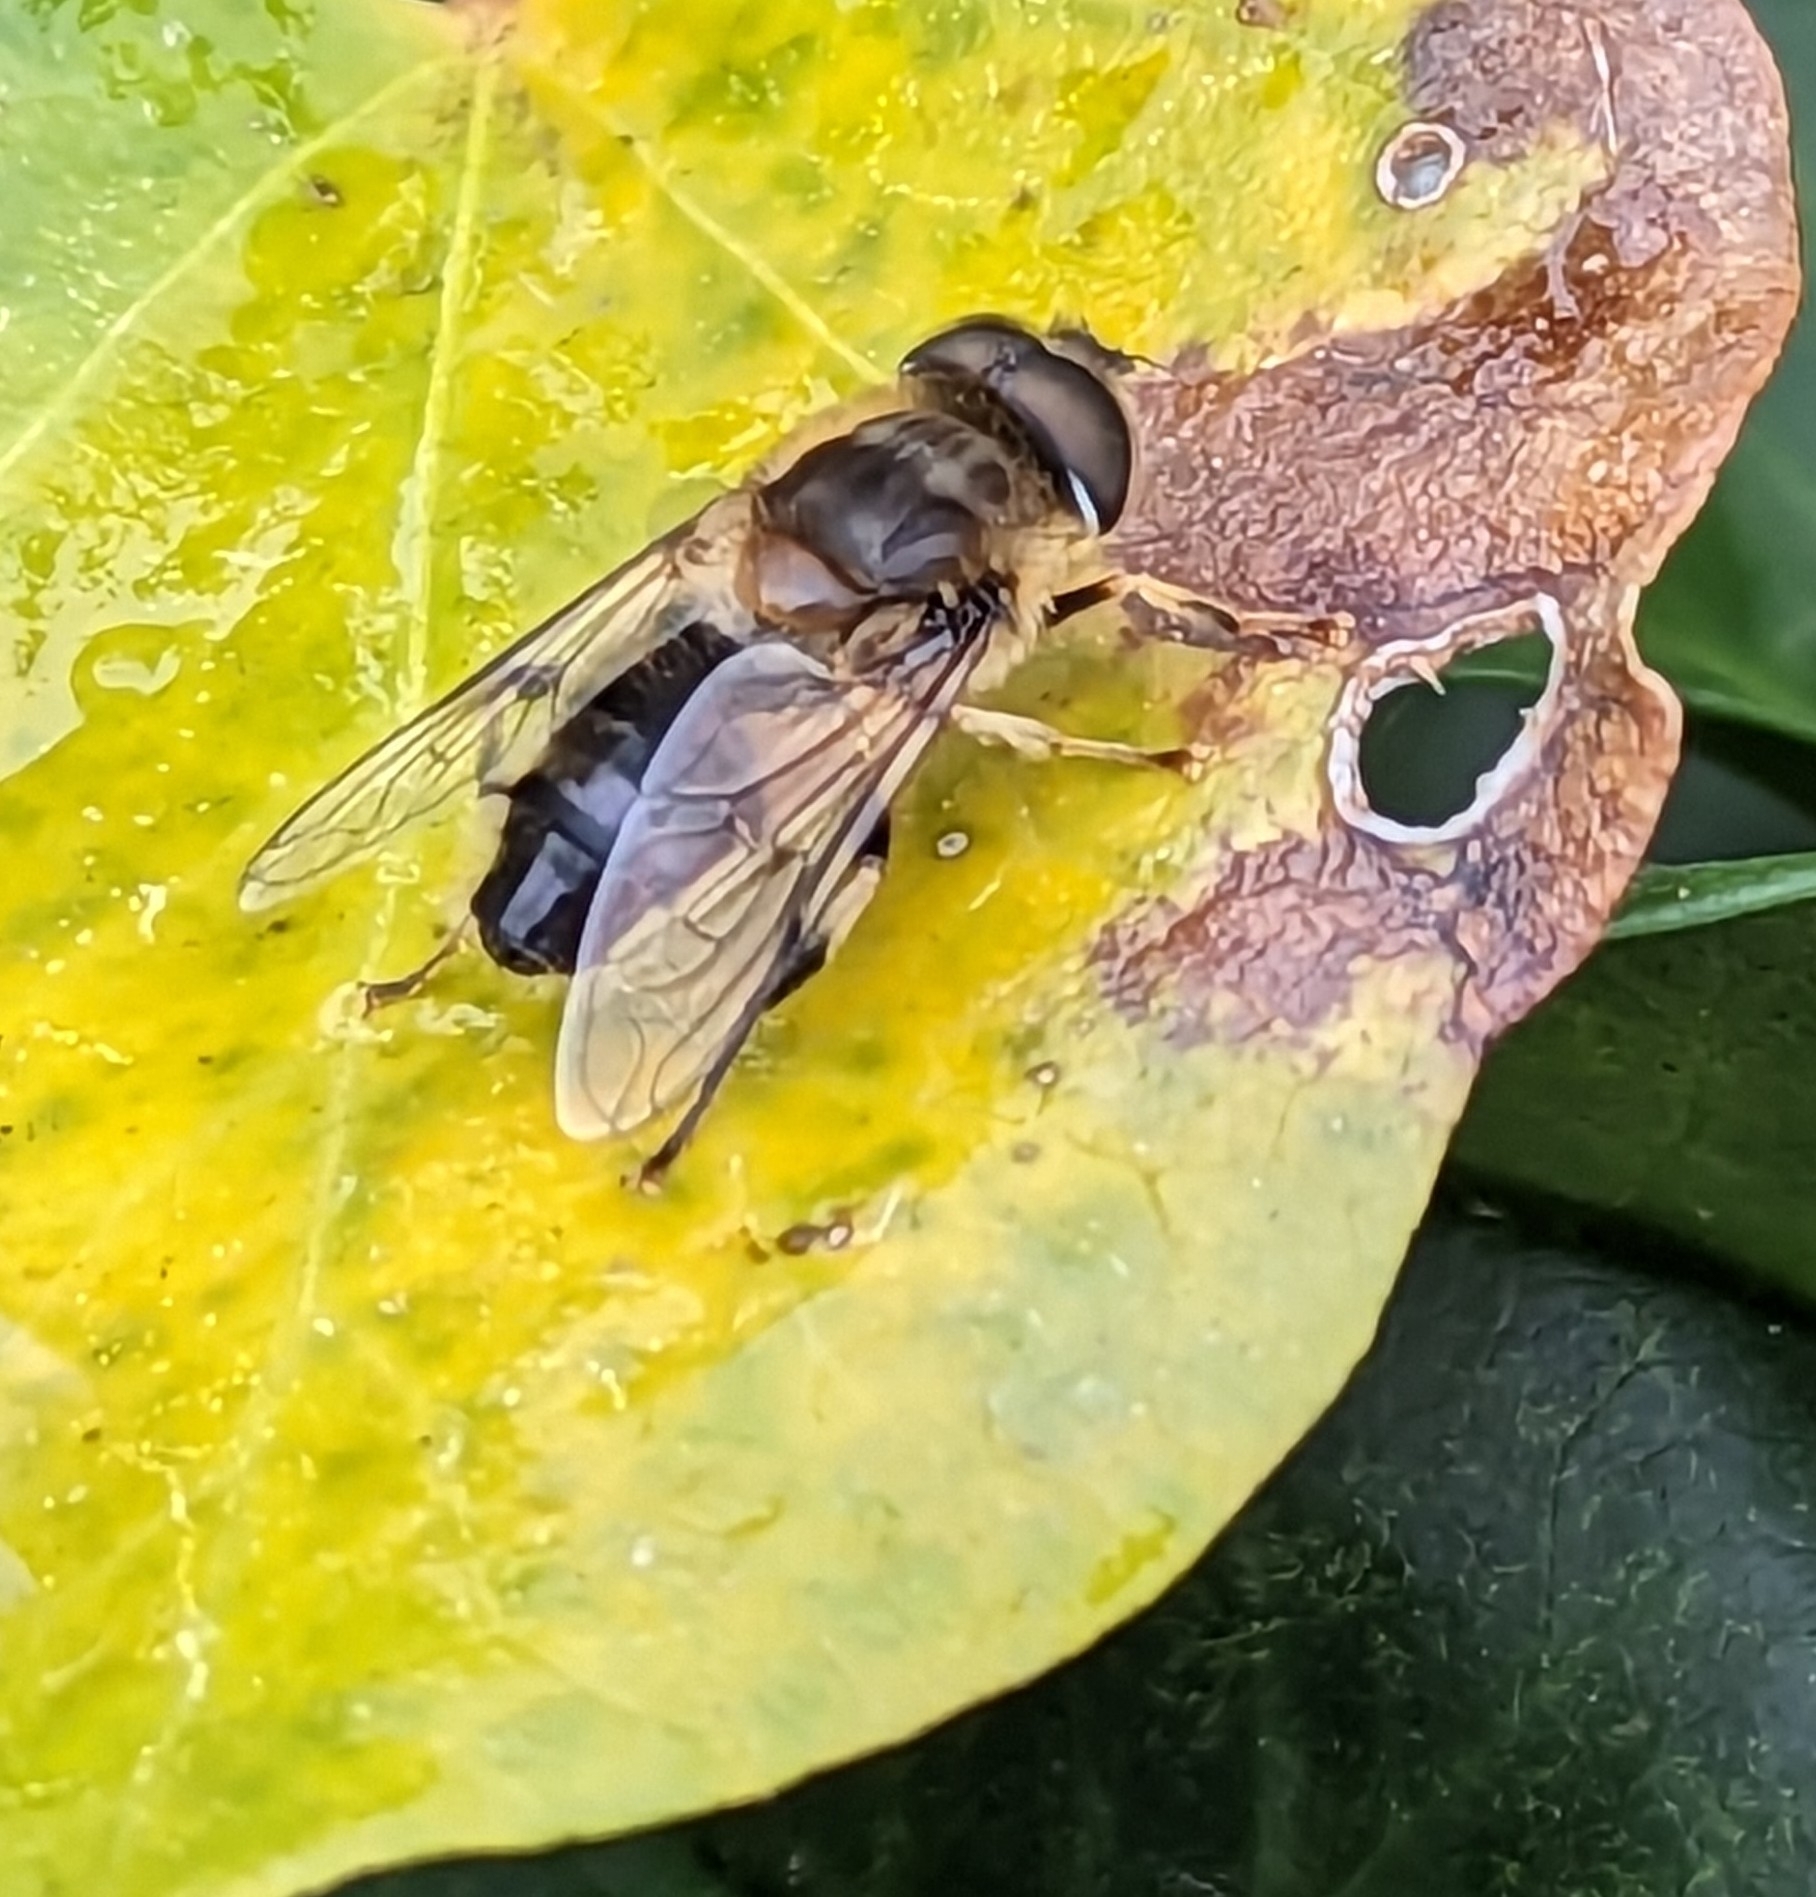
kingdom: Animalia
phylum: Arthropoda
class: Insecta
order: Diptera
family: Syrphidae
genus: Eristalis
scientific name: Eristalis pertinax
